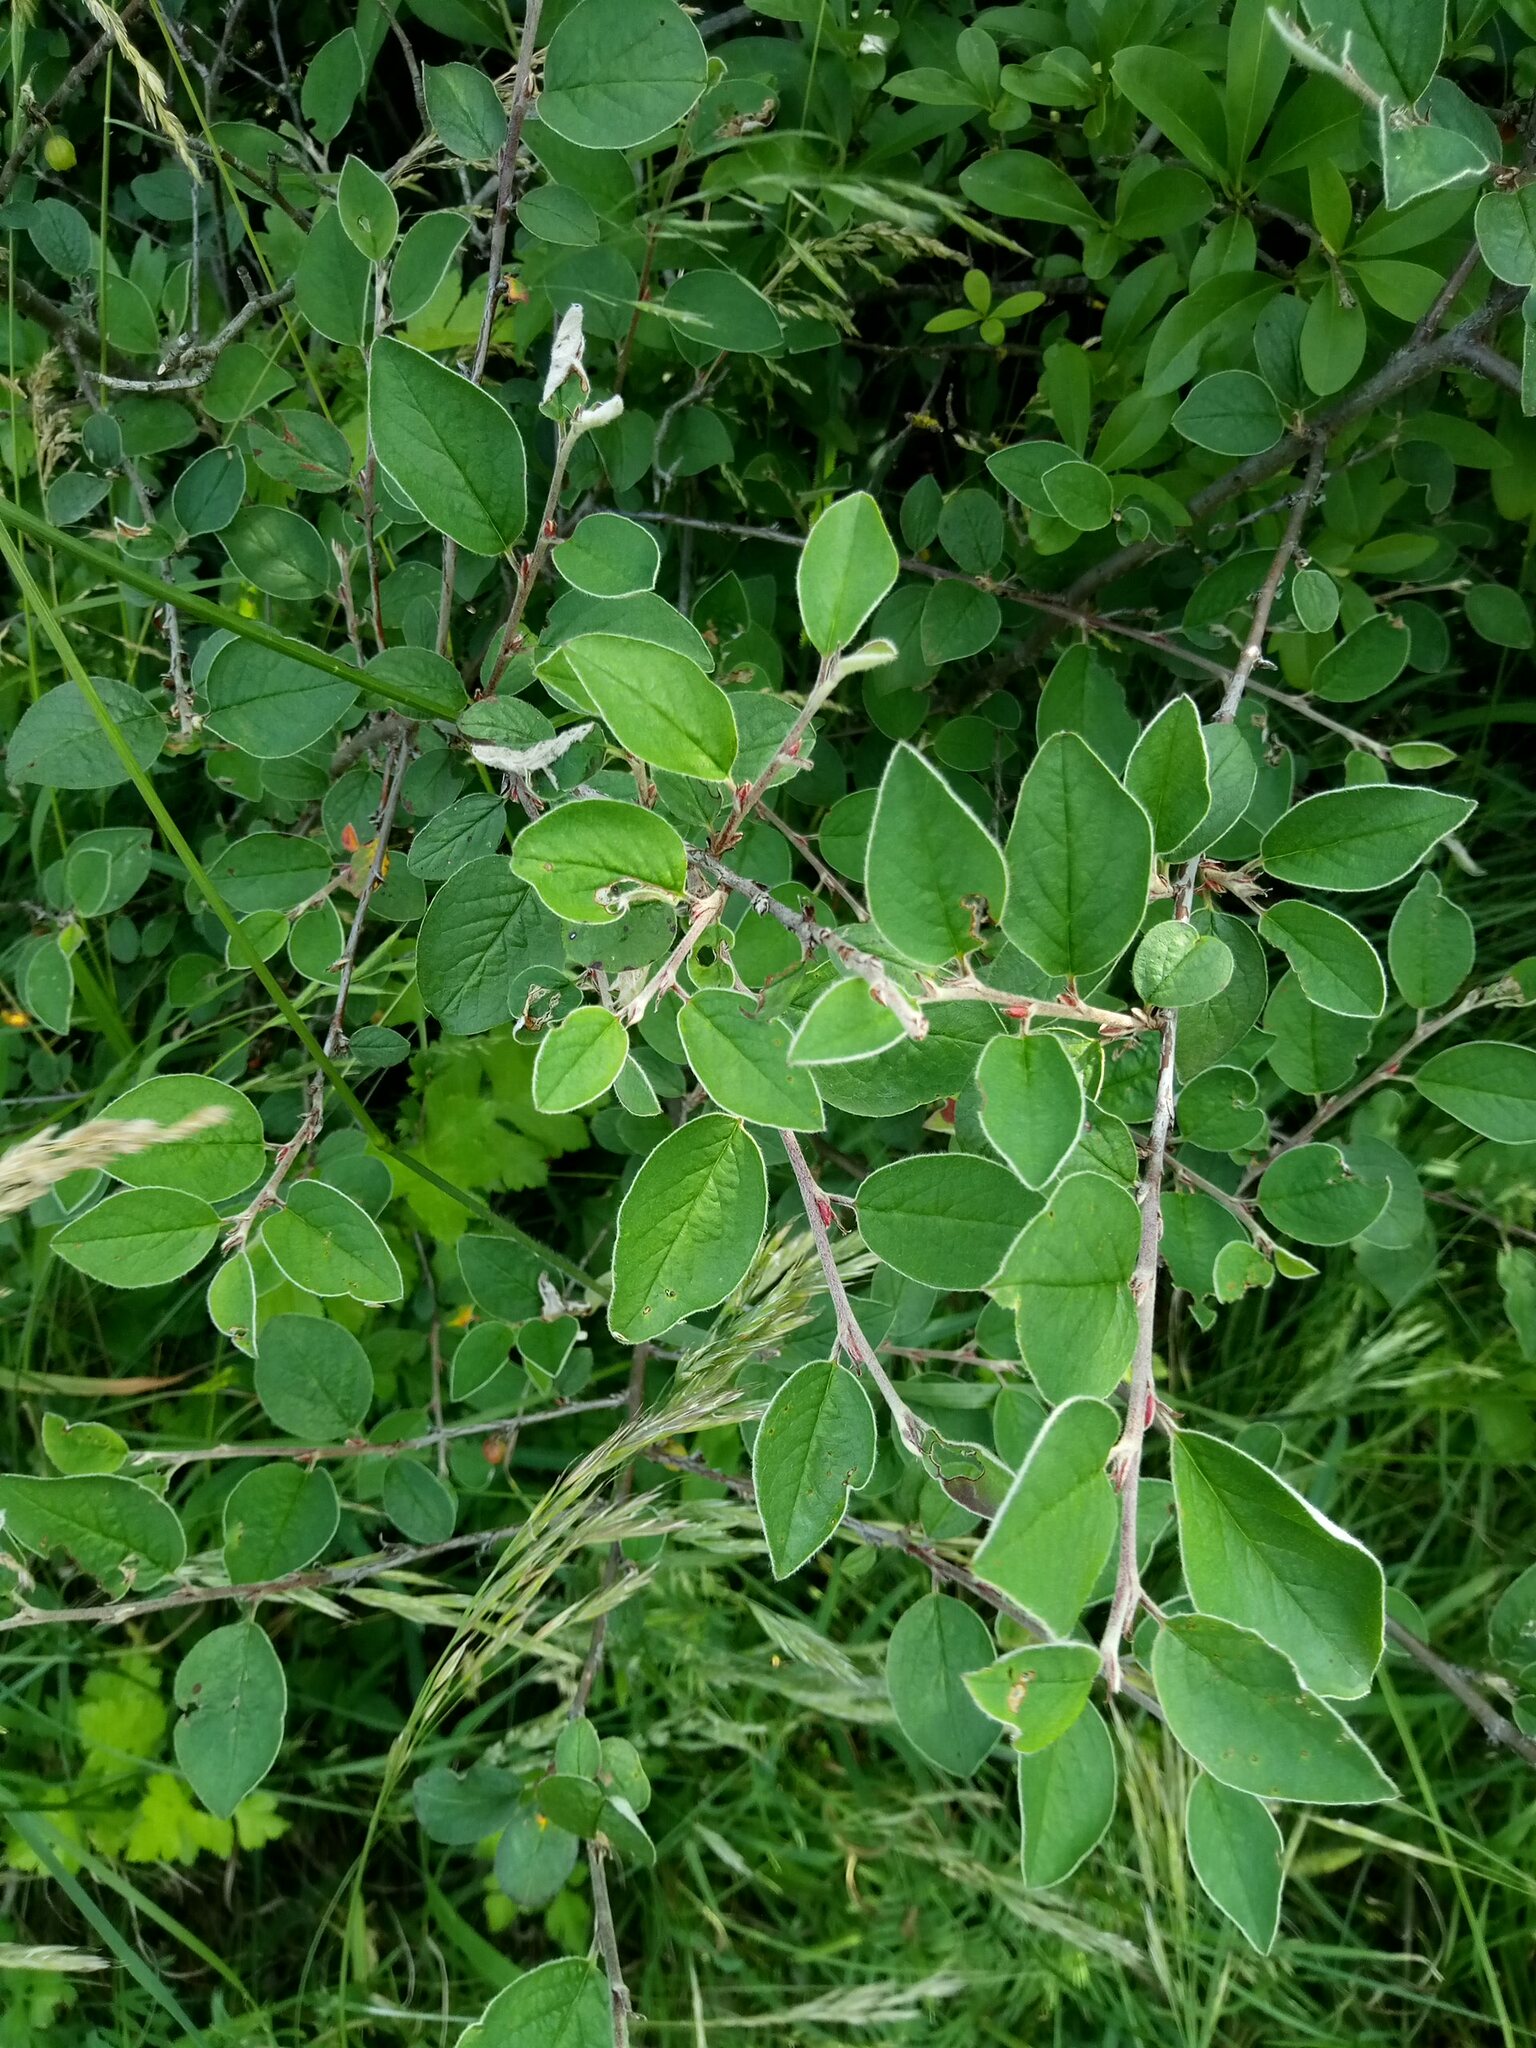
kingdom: Plantae
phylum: Tracheophyta
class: Magnoliopsida
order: Rosales
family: Rosaceae
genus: Cotoneaster
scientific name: Cotoneaster integerrimus
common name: Wild cotoneaster
